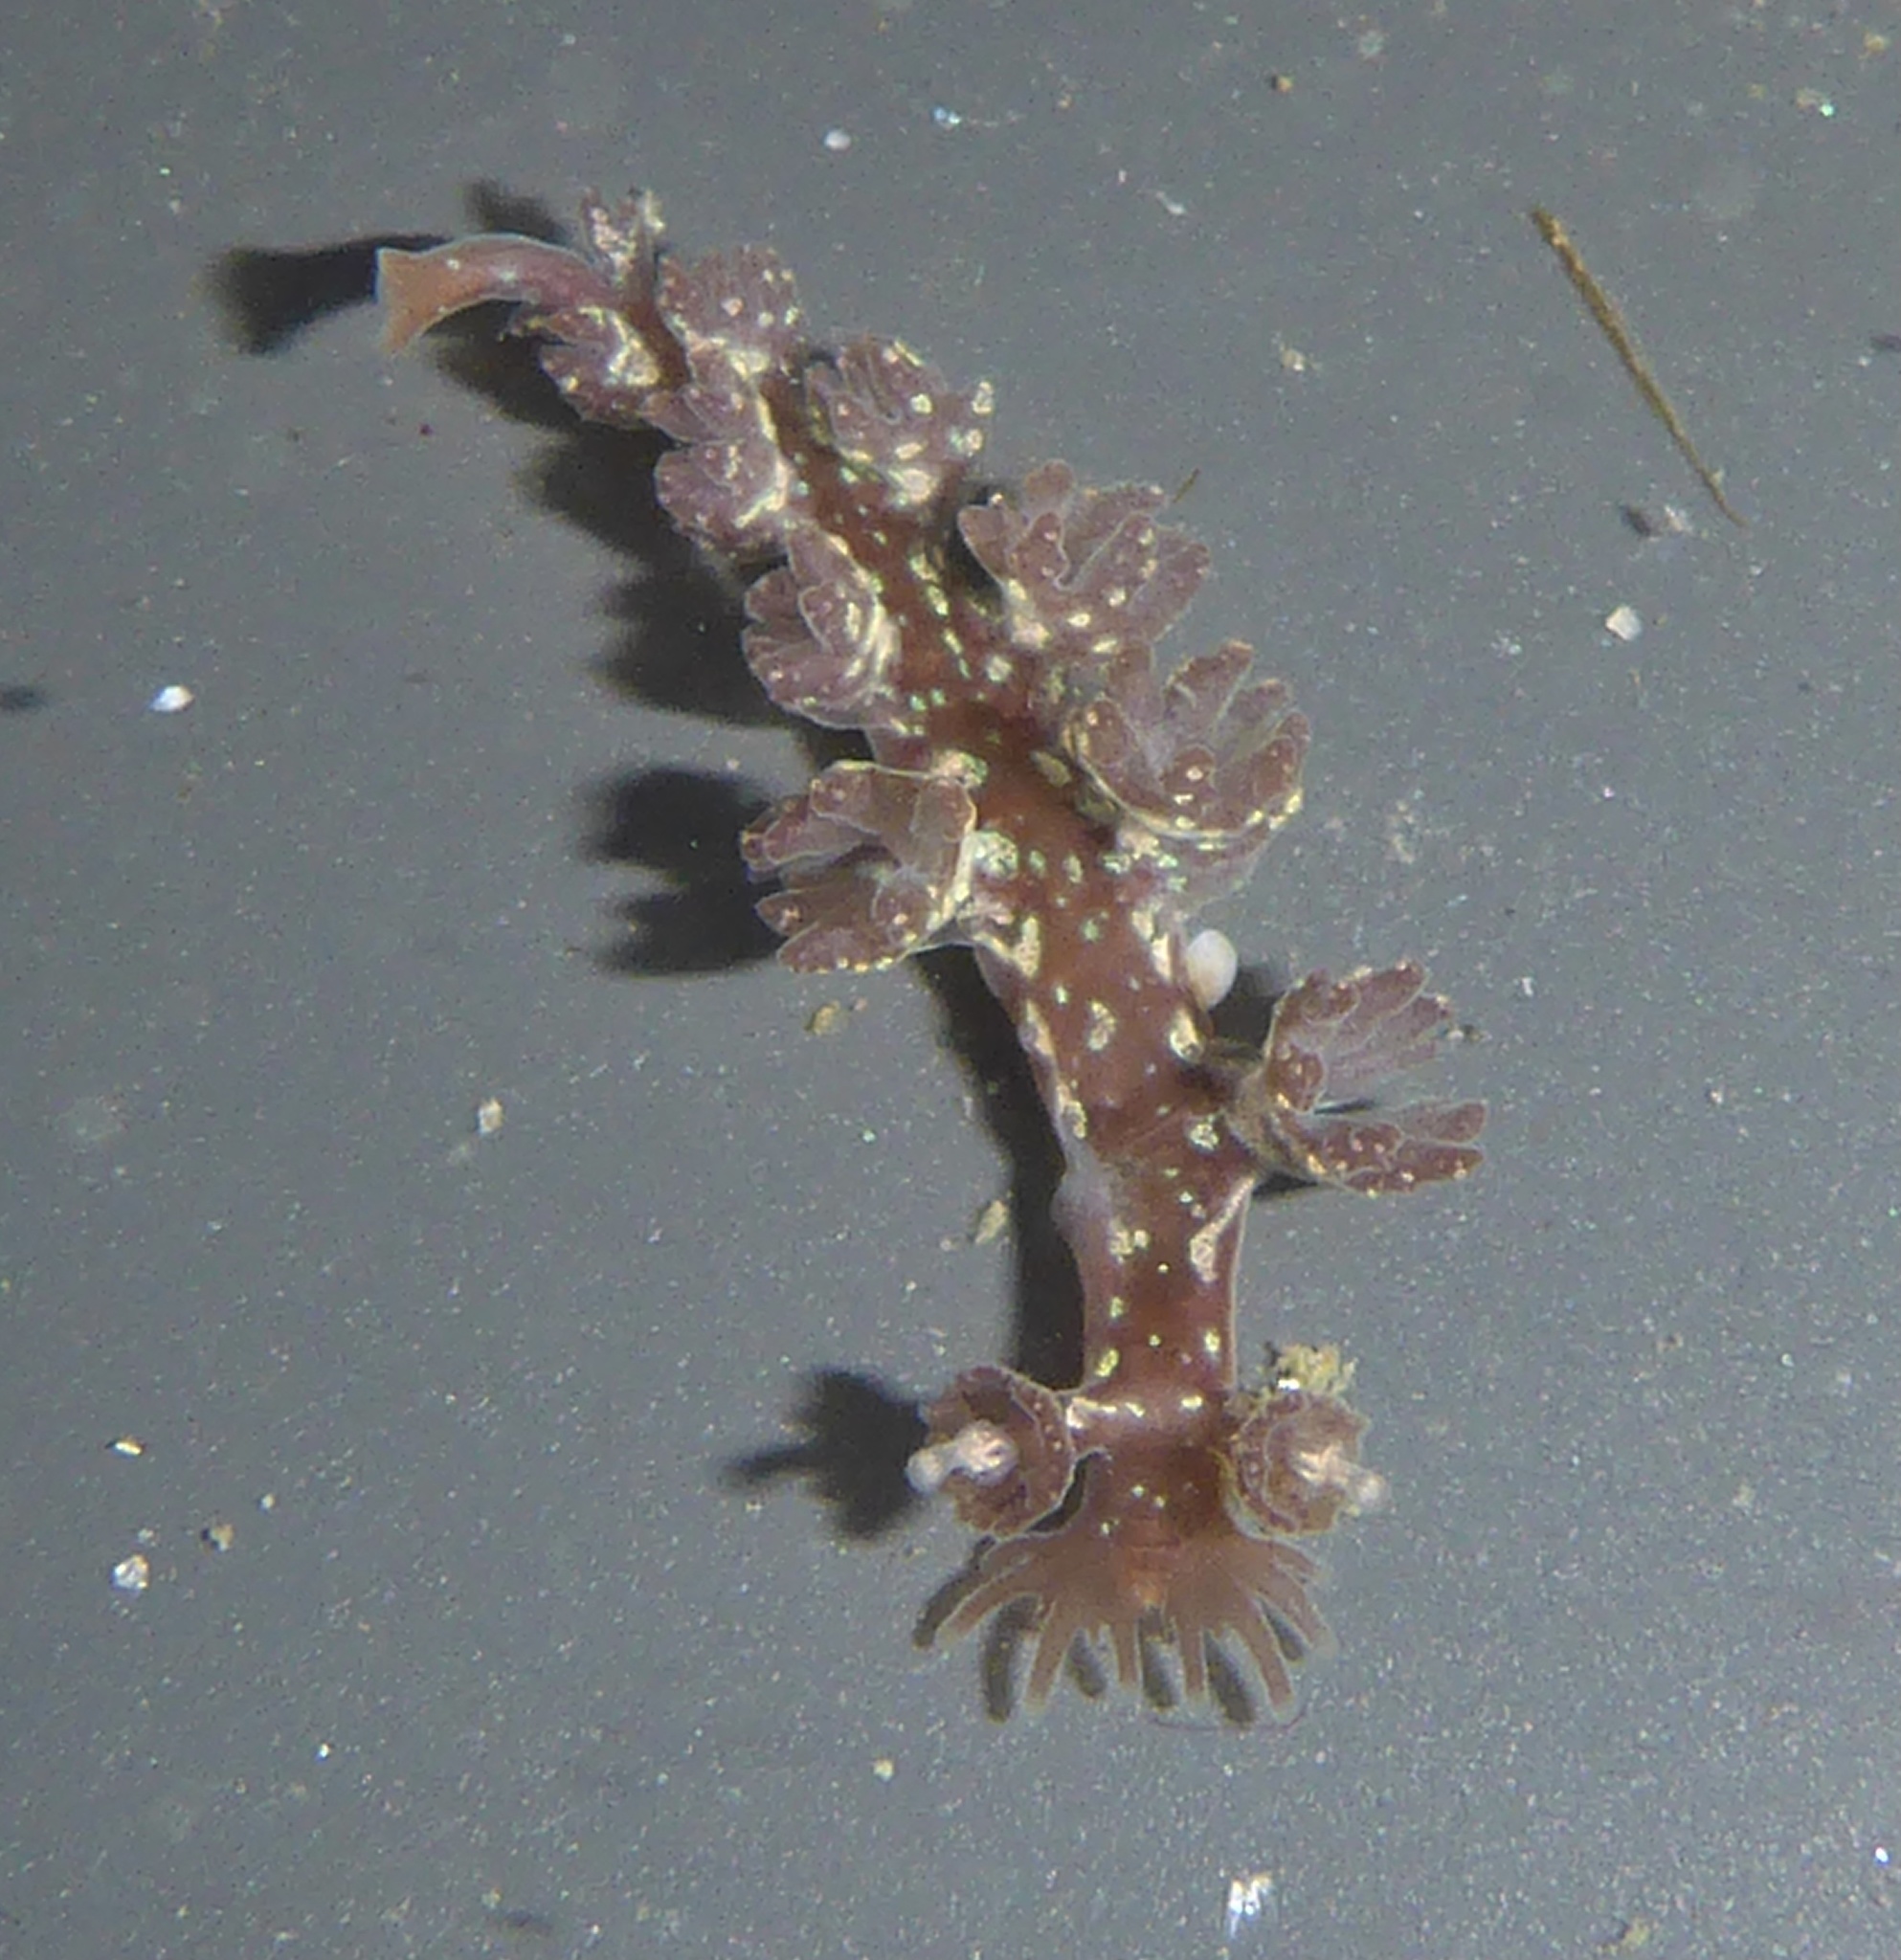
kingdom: Animalia
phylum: Mollusca
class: Gastropoda
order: Nudibranchia
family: Hancockiidae
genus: Hancockia
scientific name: Hancockia californica
